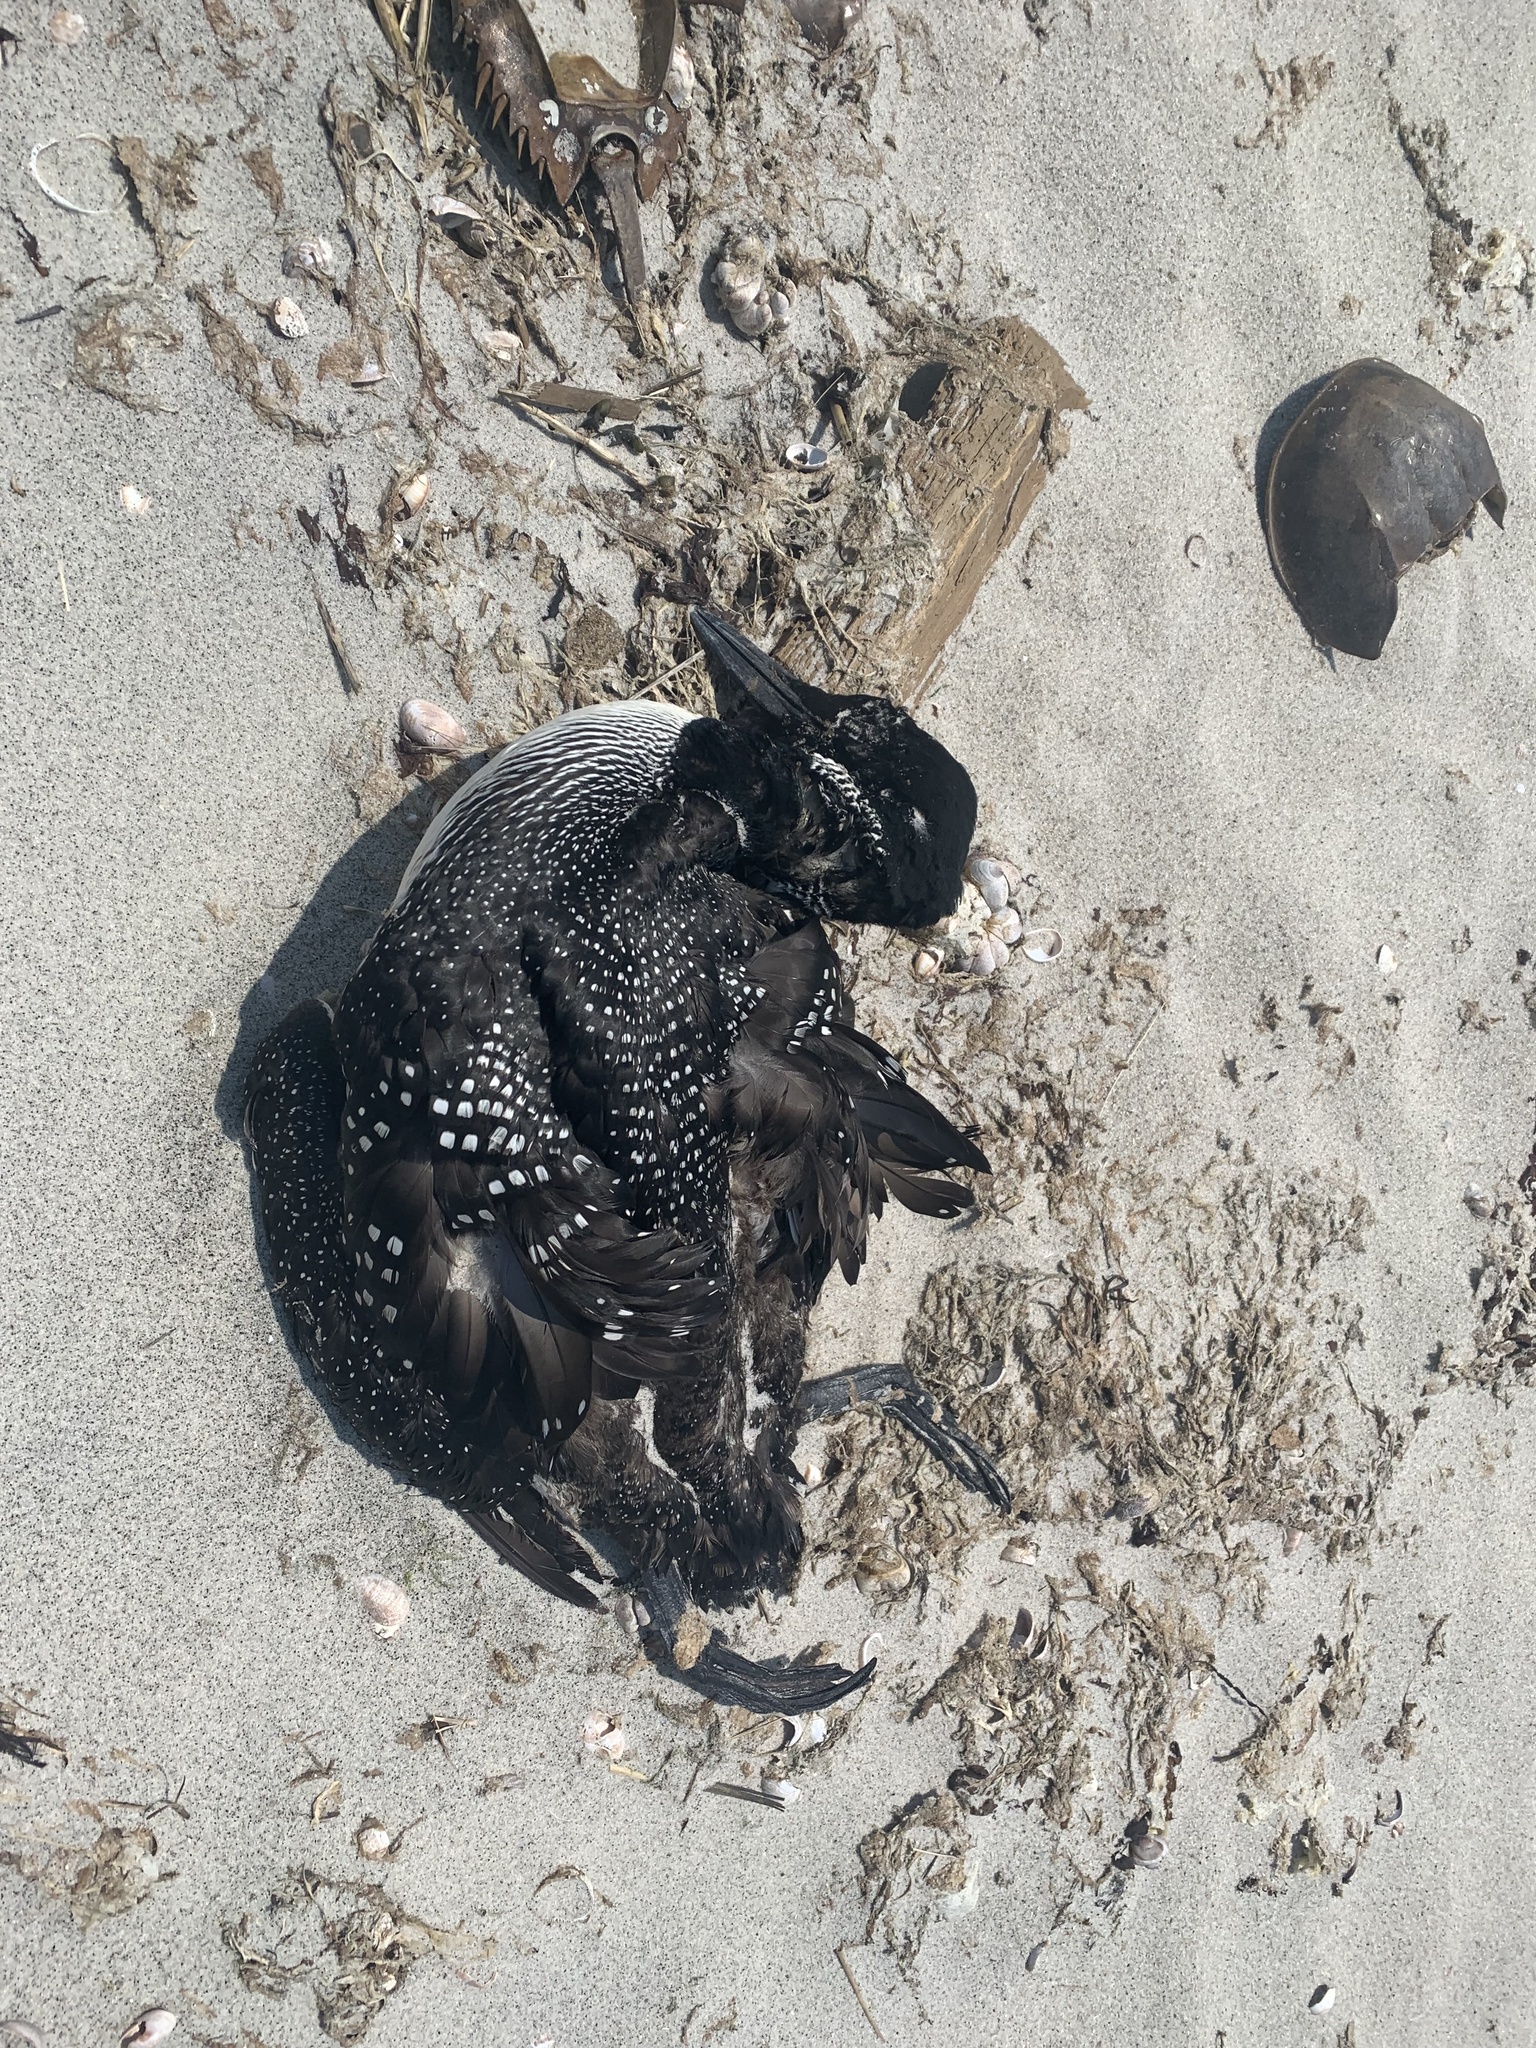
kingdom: Animalia
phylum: Chordata
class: Aves
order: Gaviiformes
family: Gaviidae
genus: Gavia
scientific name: Gavia immer
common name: Common loon
